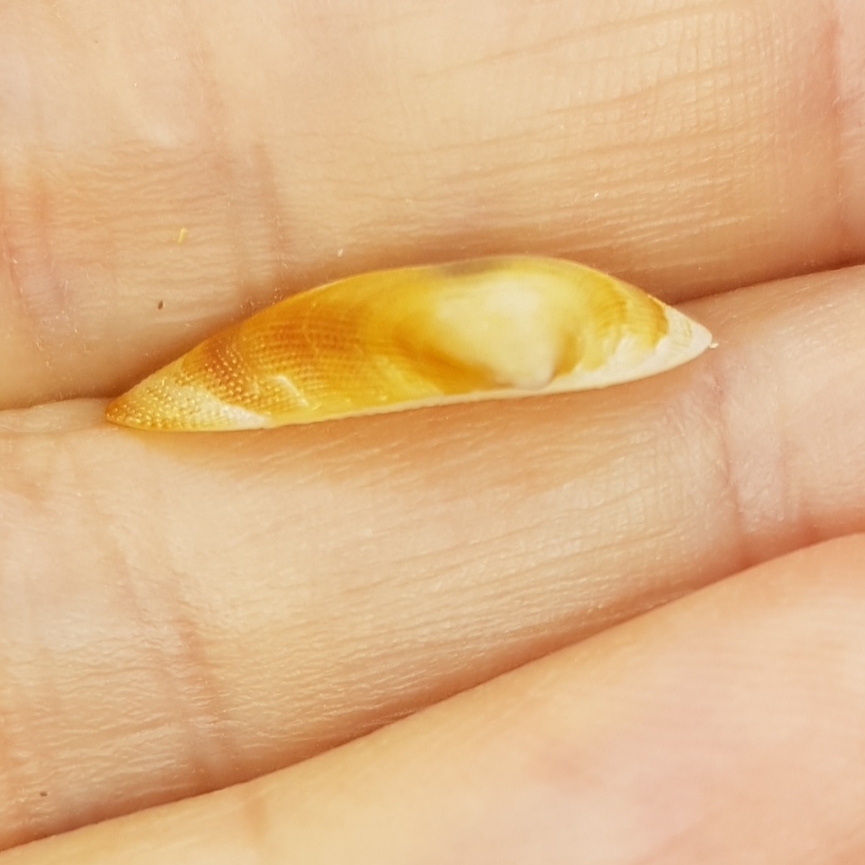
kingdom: Animalia
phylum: Mollusca
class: Bivalvia
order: Arcida
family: Arcidae
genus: Barbatia
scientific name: Barbatia barbata
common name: Bearded ark
